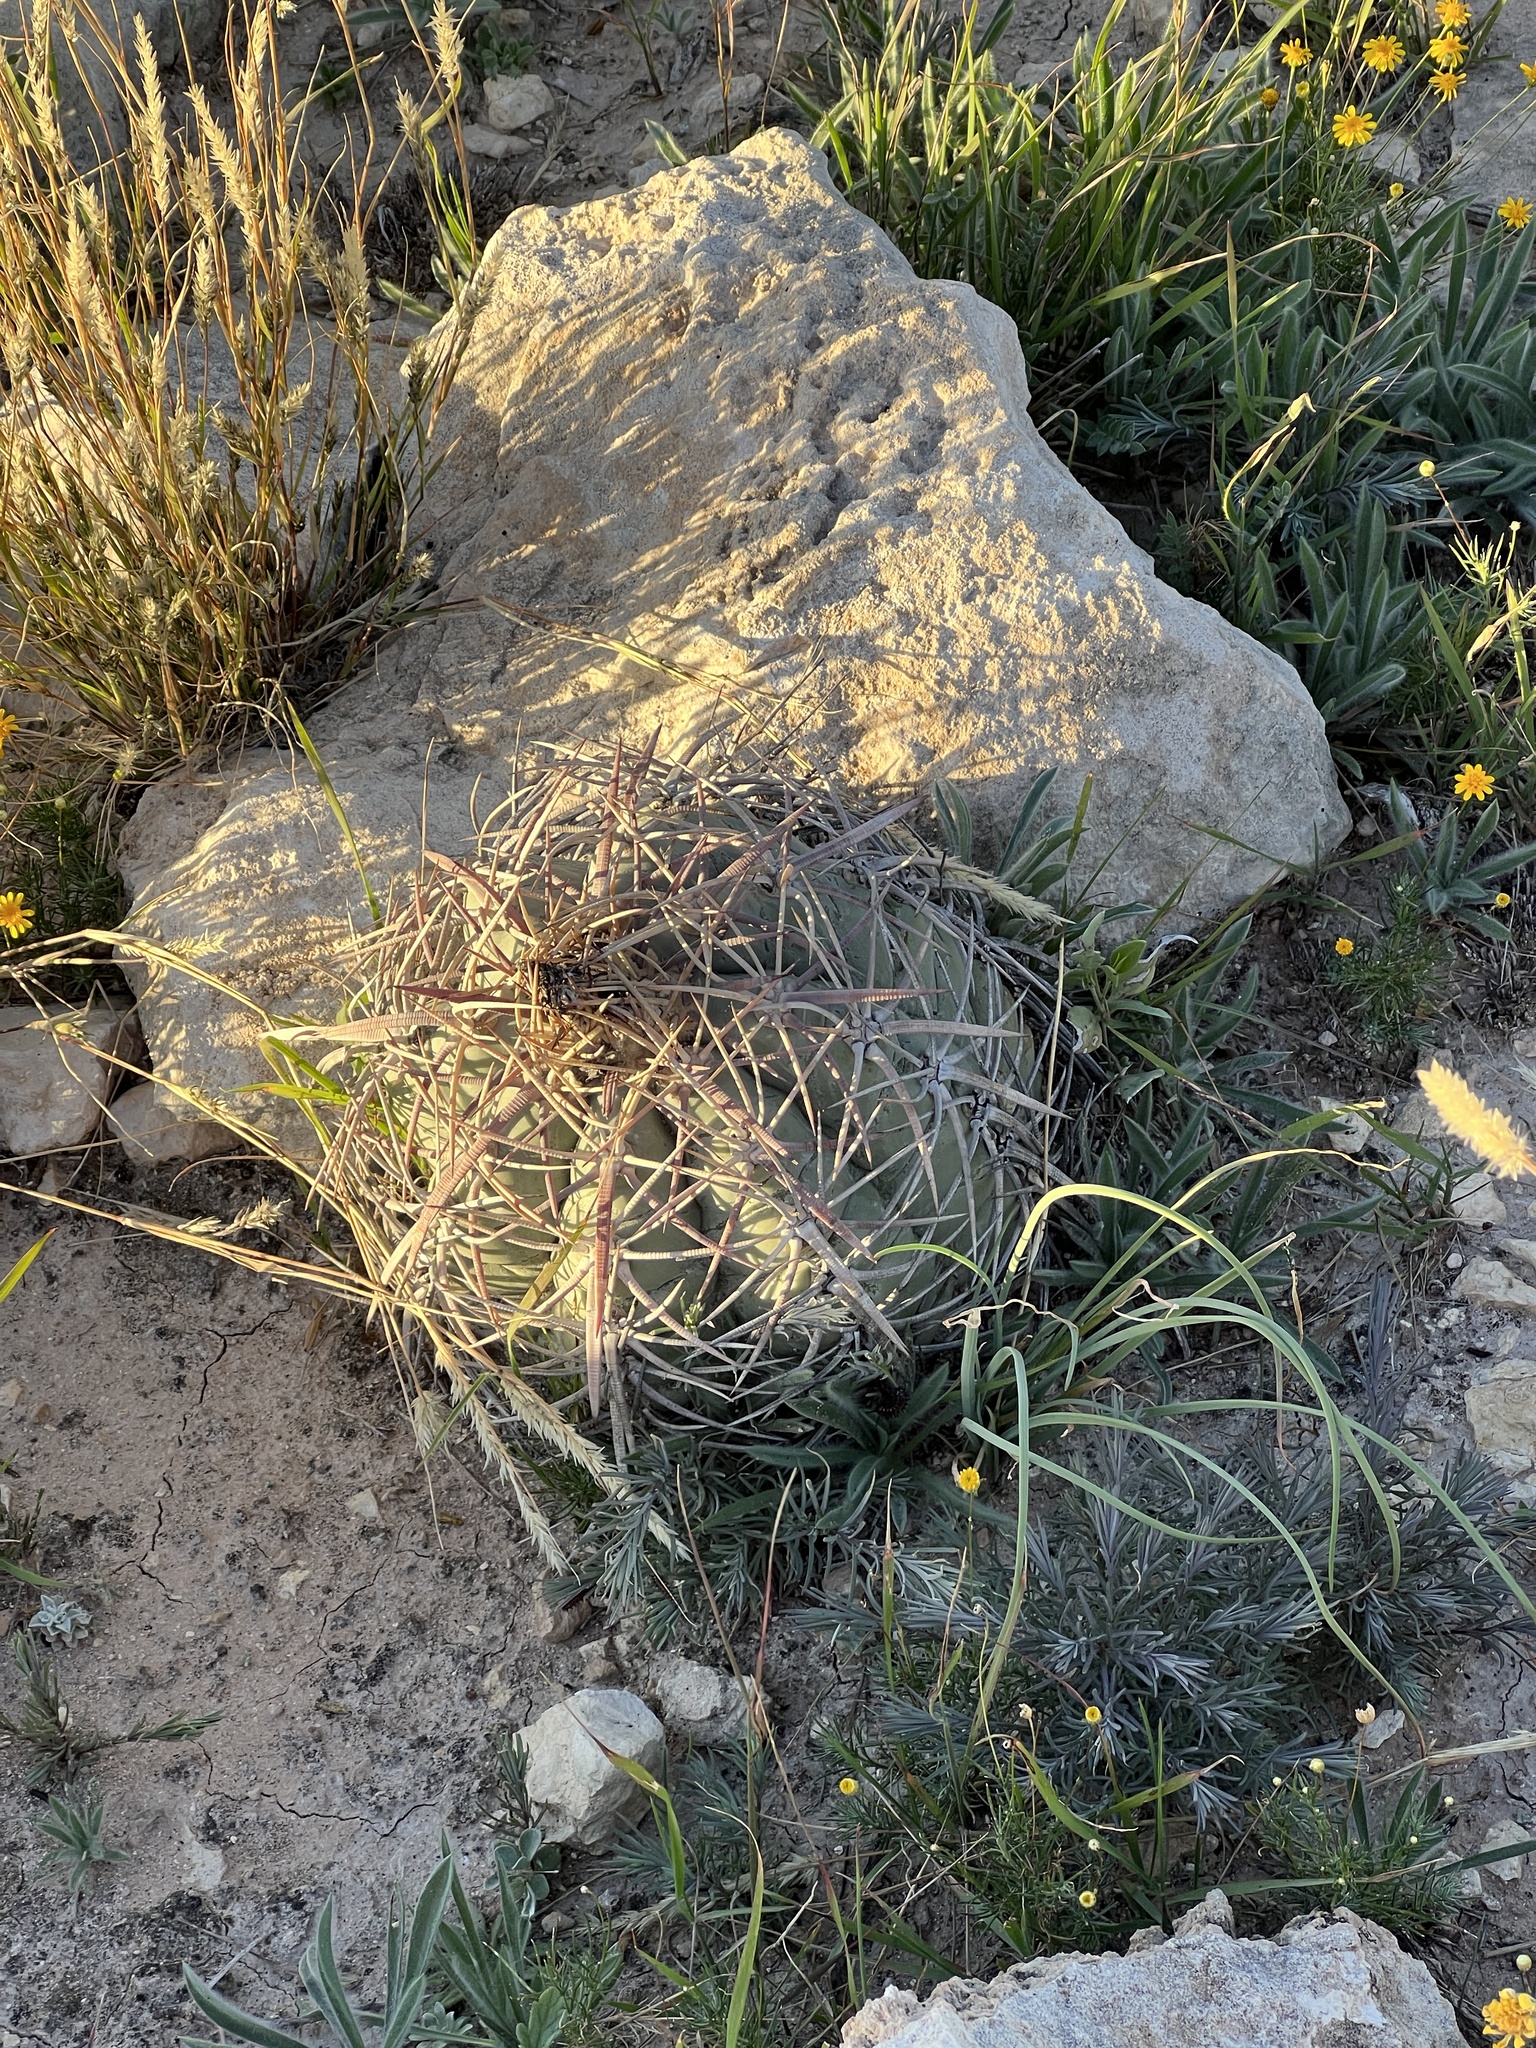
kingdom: Plantae
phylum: Tracheophyta
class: Magnoliopsida
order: Caryophyllales
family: Cactaceae
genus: Echinocactus
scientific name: Echinocactus horizonthalonius
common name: Devilshead
